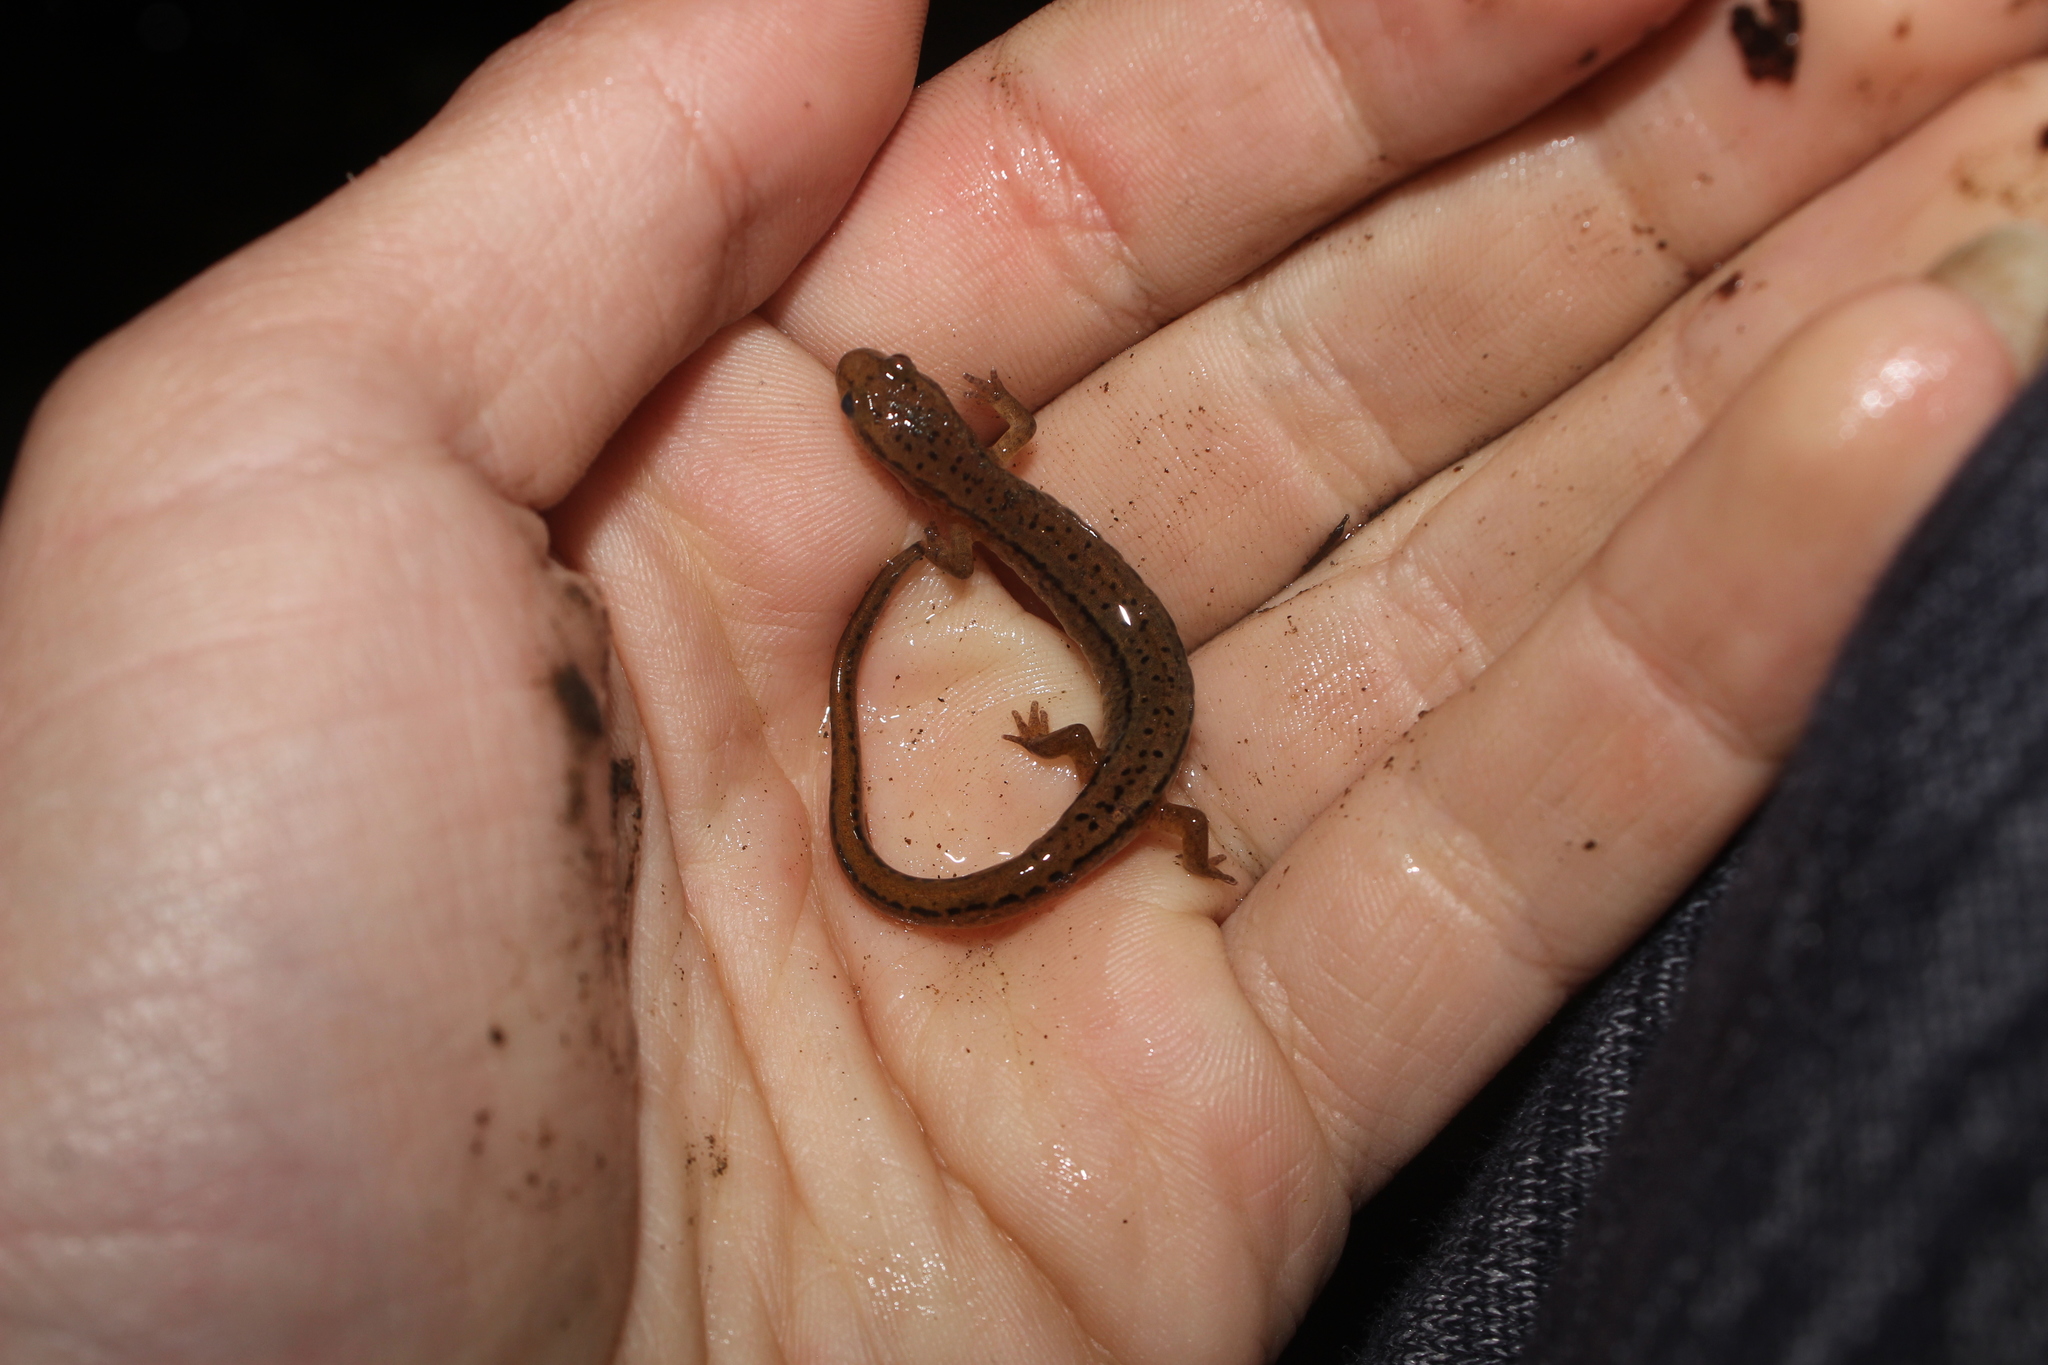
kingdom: Animalia
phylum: Chordata
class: Amphibia
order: Caudata
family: Plethodontidae
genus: Eurycea
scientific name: Eurycea bislineata
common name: Northern two-lined salamander
